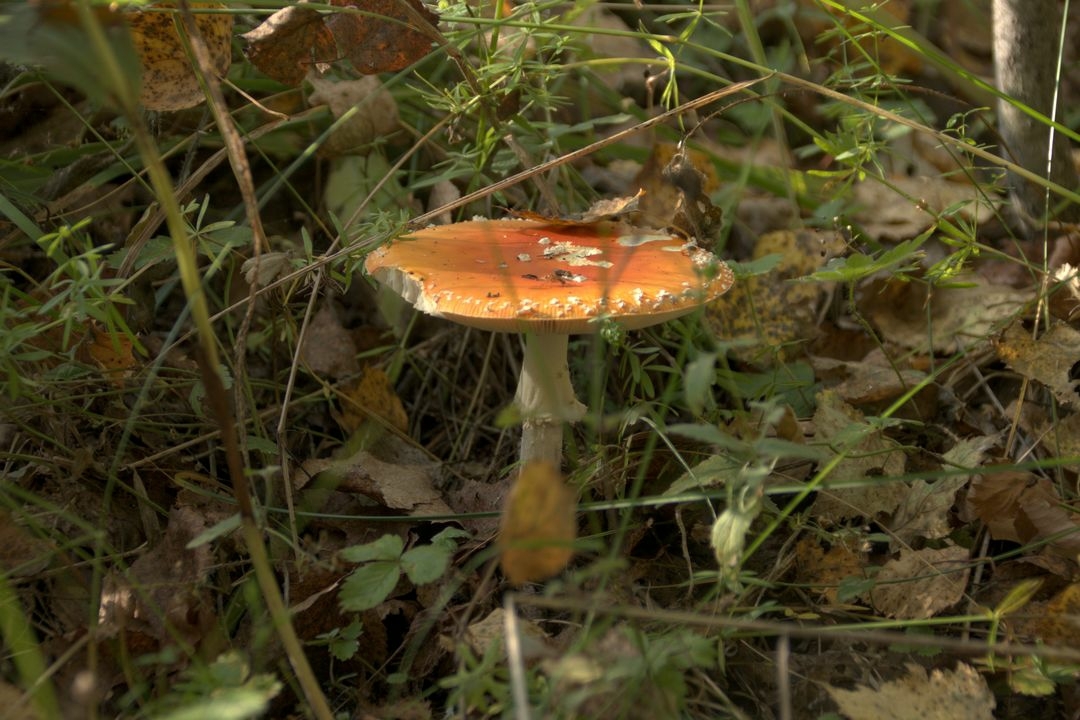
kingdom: Fungi
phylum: Basidiomycota
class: Agaricomycetes
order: Agaricales
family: Amanitaceae
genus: Amanita
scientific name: Amanita muscaria
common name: Fly agaric
